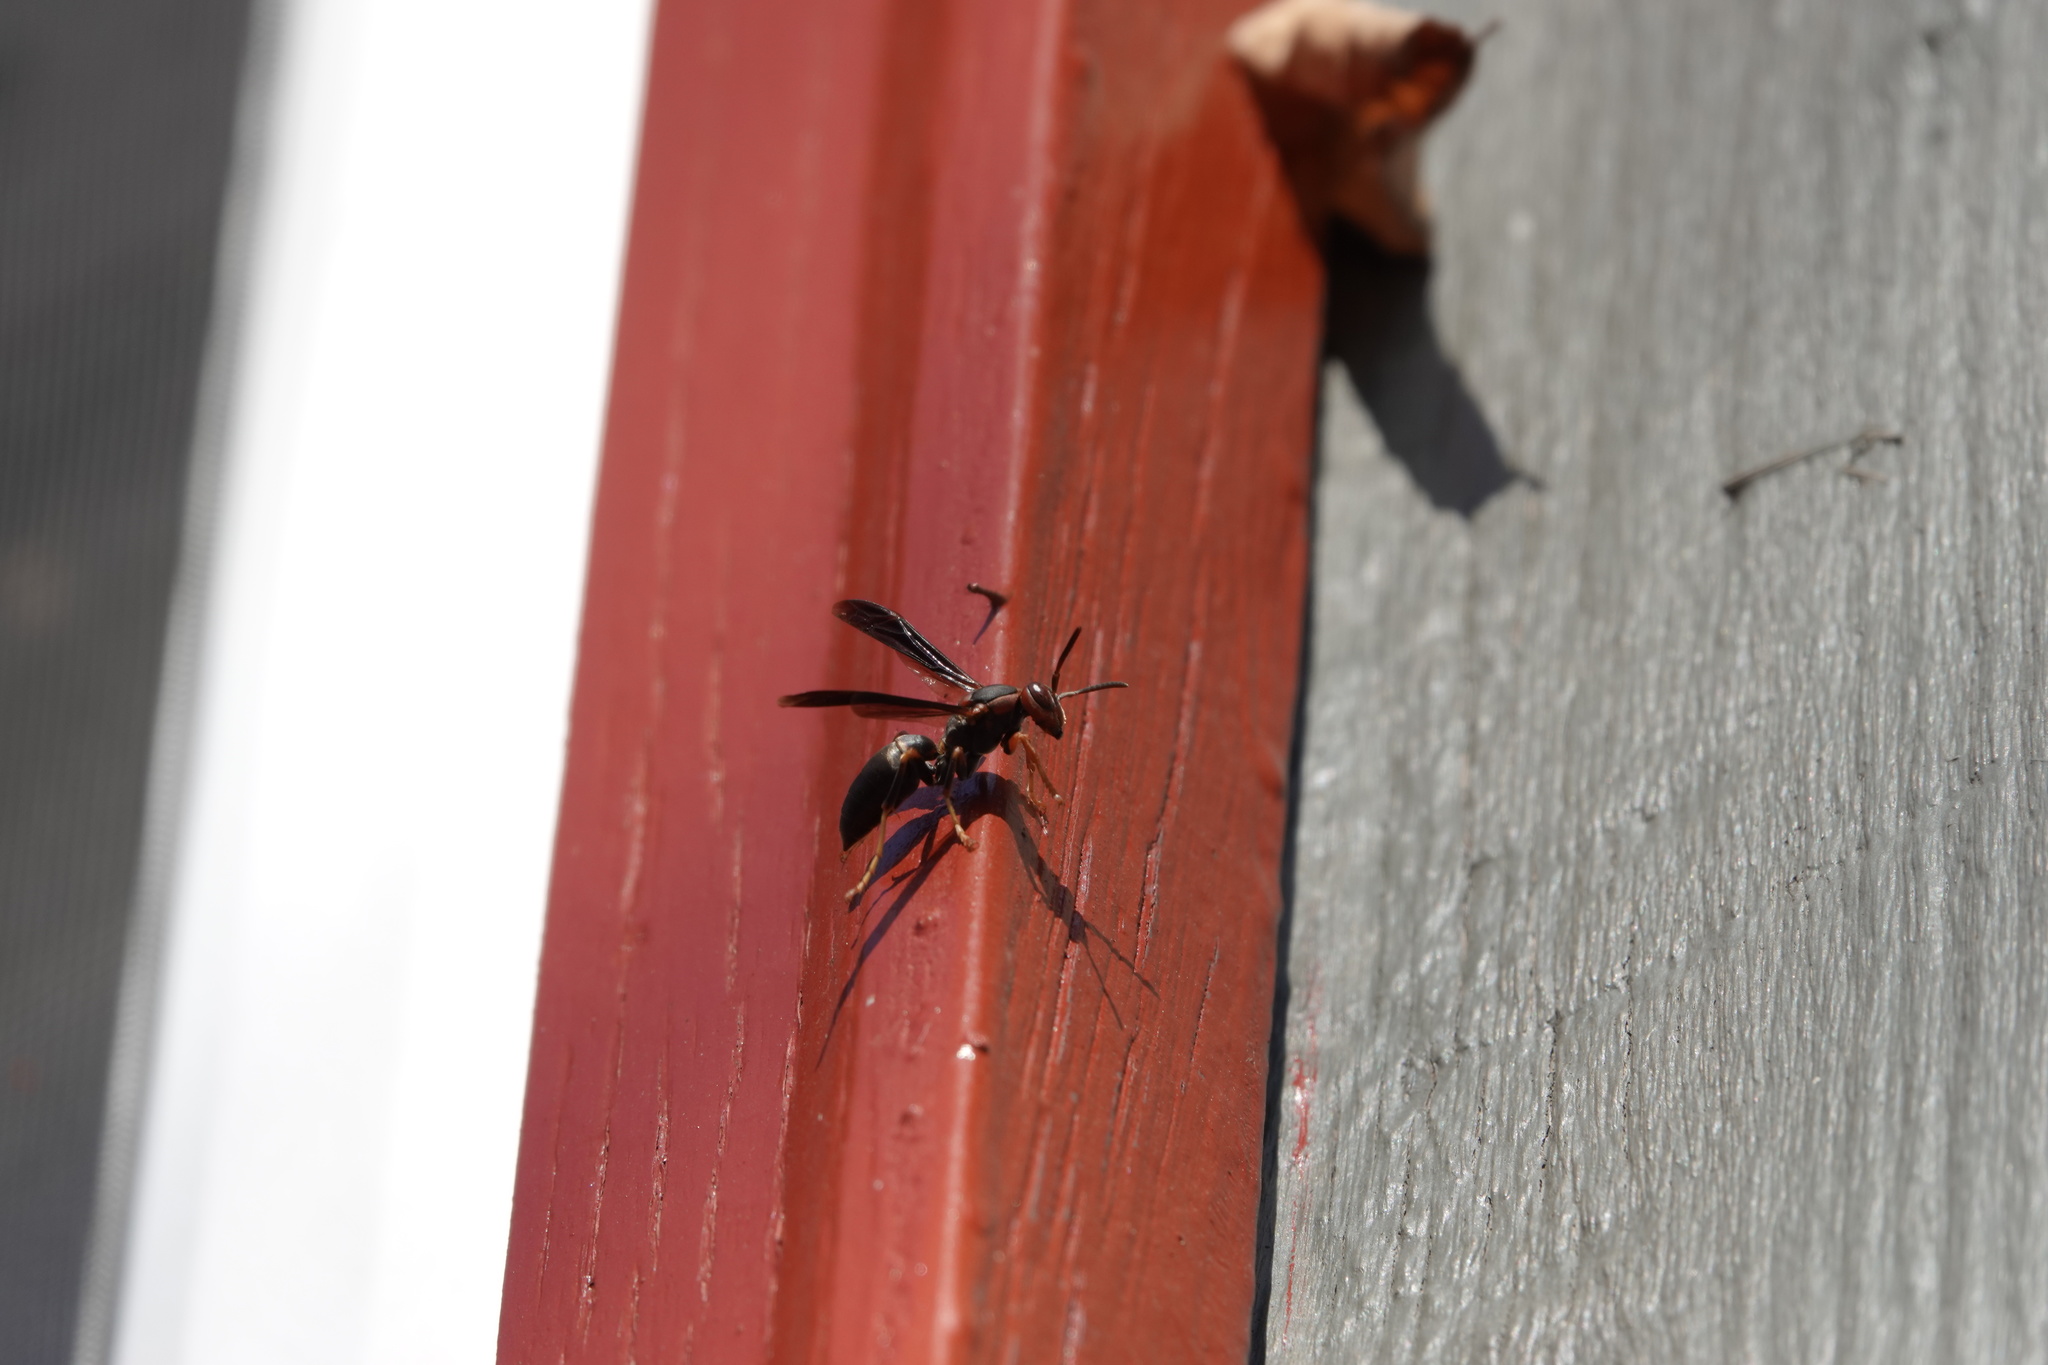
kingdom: Animalia
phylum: Arthropoda
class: Insecta
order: Hymenoptera
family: Eumenidae
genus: Polistes
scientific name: Polistes metricus
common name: Metric paper wasp
